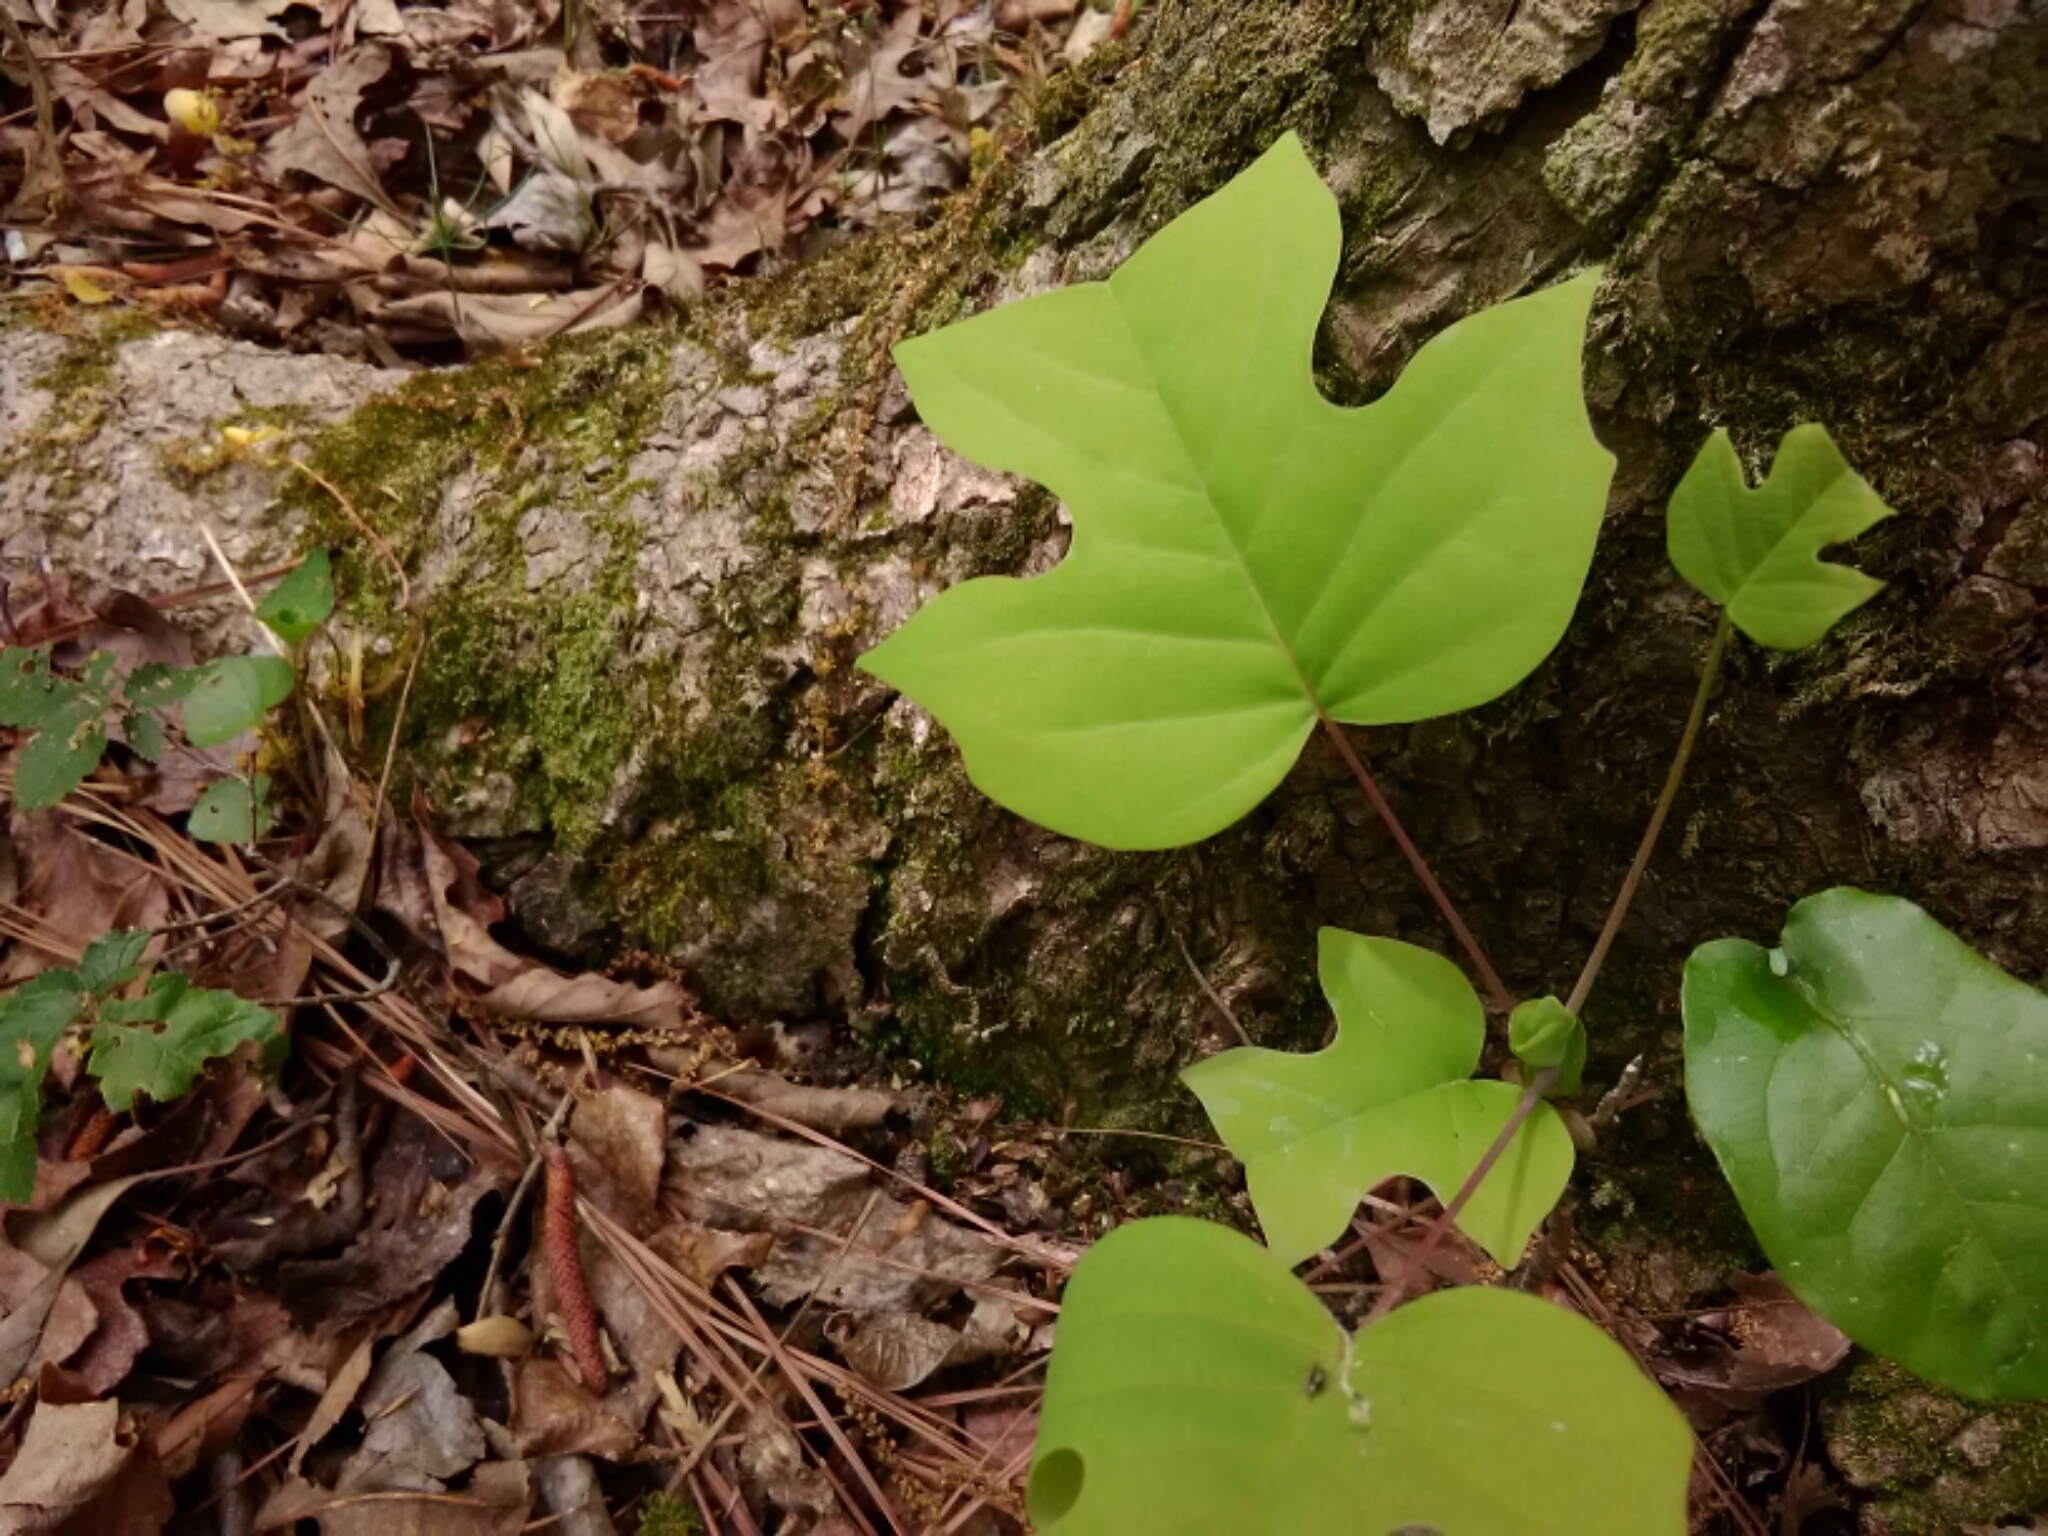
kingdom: Plantae
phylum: Tracheophyta
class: Magnoliopsida
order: Magnoliales
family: Magnoliaceae
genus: Liriodendron
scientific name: Liriodendron tulipifera
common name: Tulip tree
